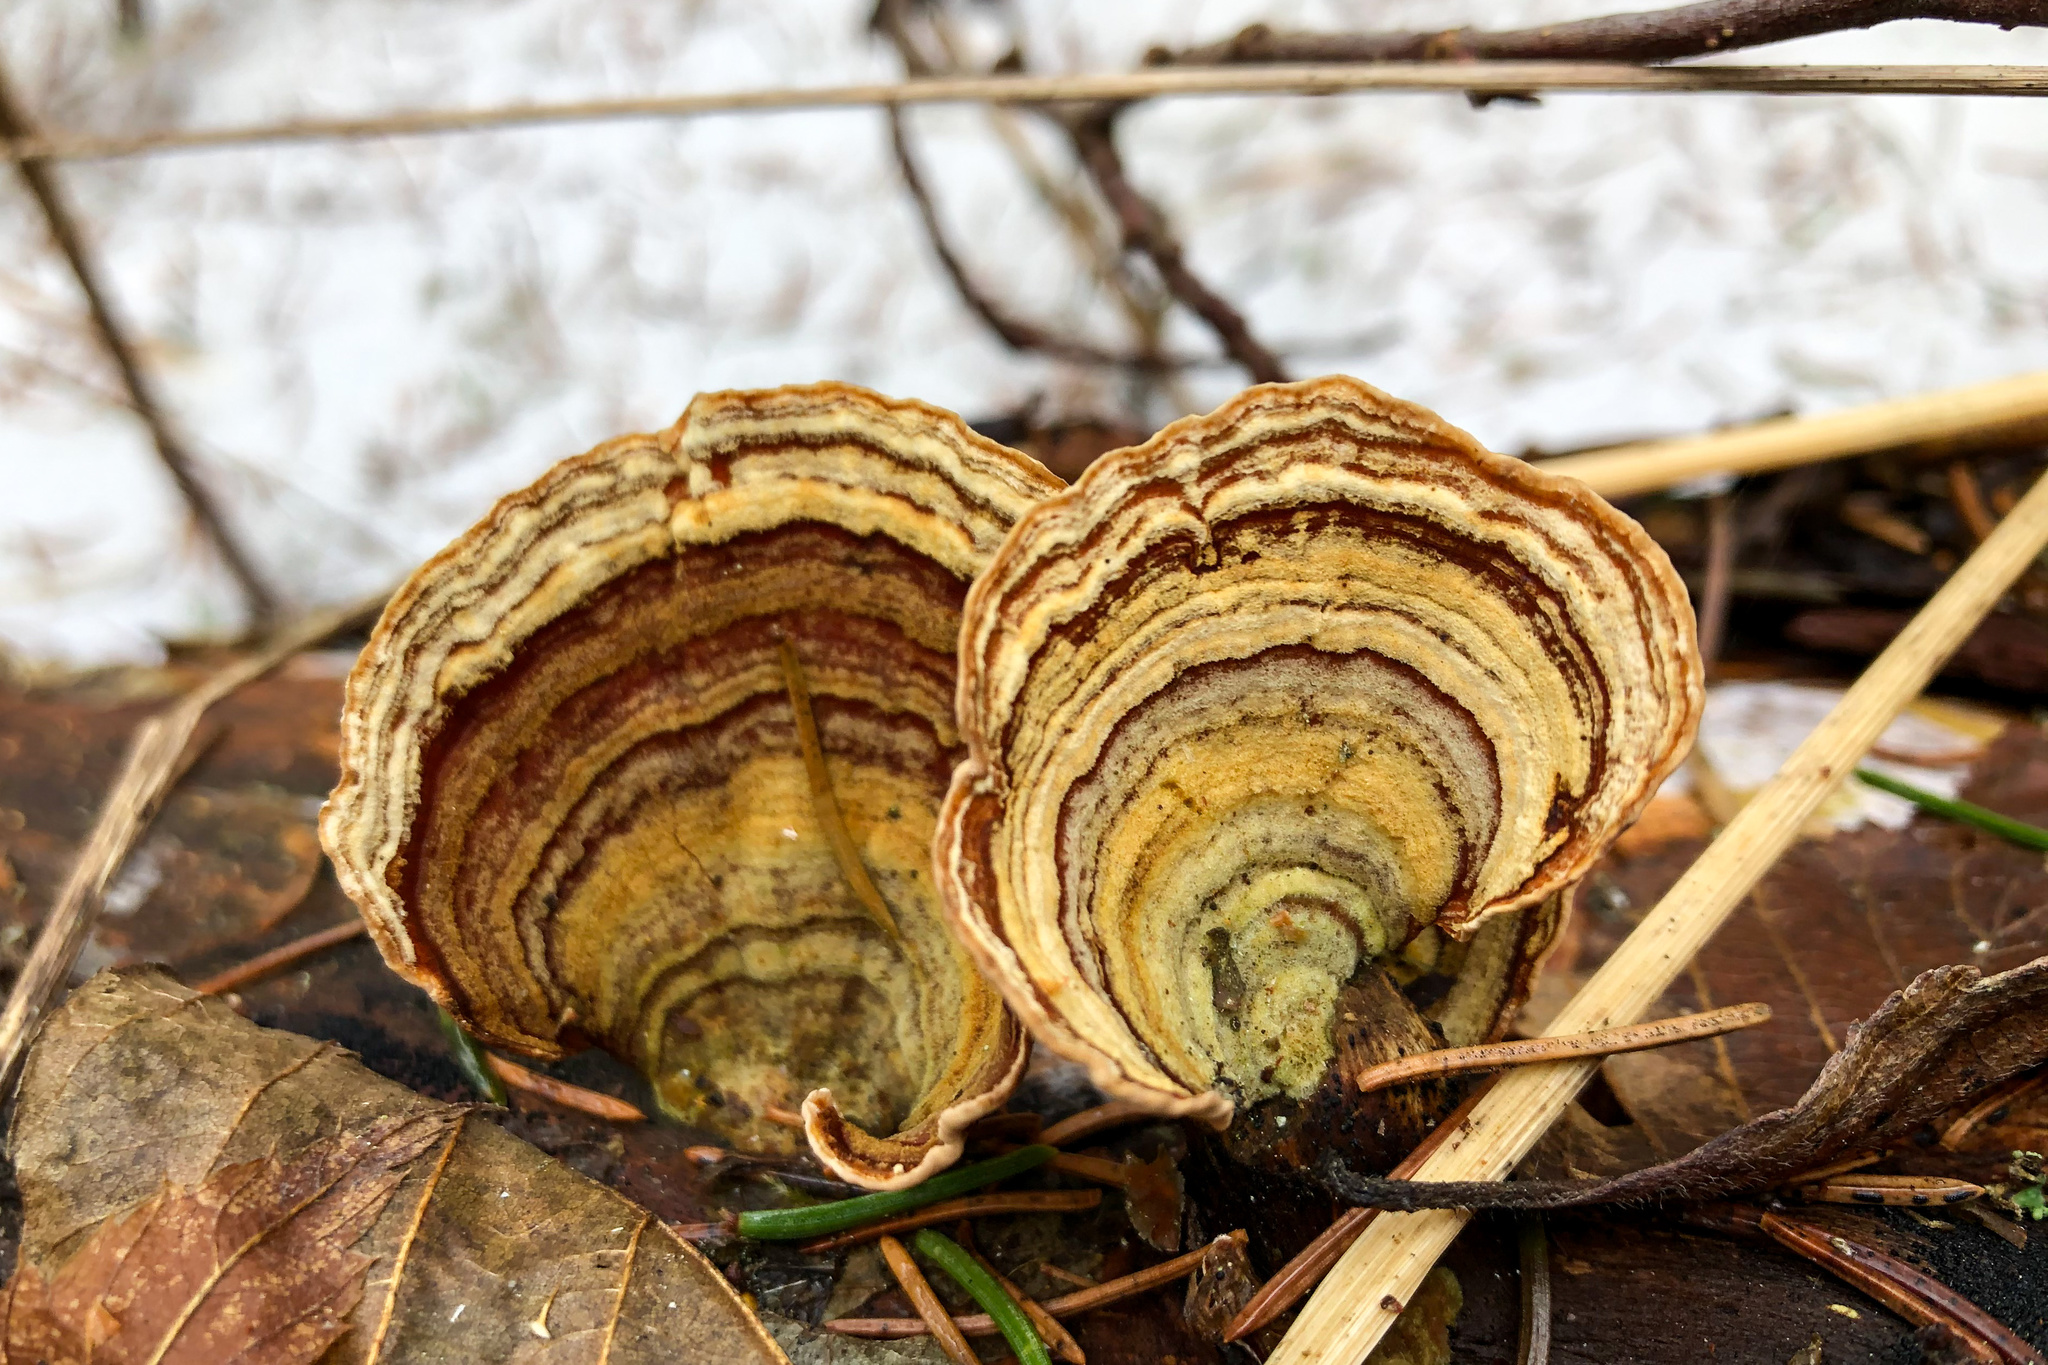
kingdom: Fungi
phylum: Basidiomycota
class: Agaricomycetes
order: Russulales
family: Stereaceae
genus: Stereum
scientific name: Stereum subtomentosum
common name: Yellowing curtain crust
